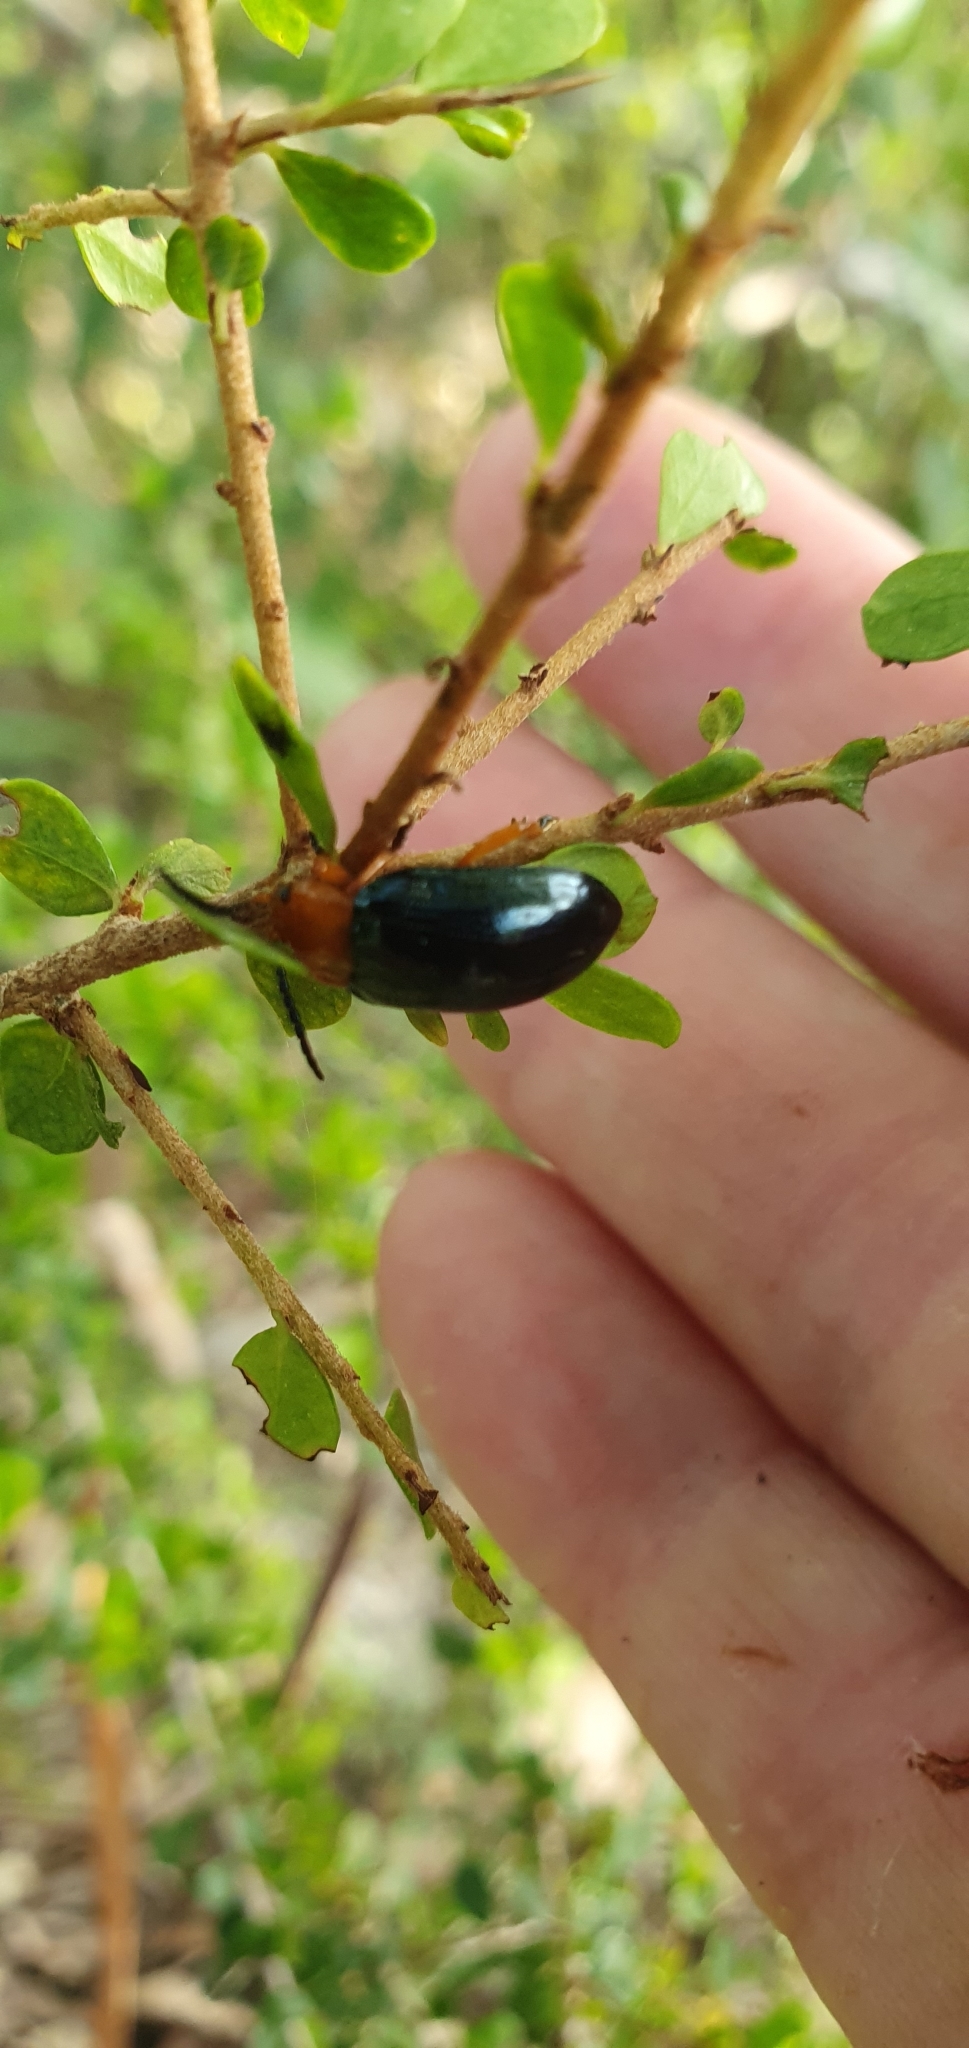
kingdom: Animalia
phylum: Arthropoda
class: Insecta
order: Coleoptera
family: Chrysomelidae
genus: Lamprolina
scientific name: Lamprolina
